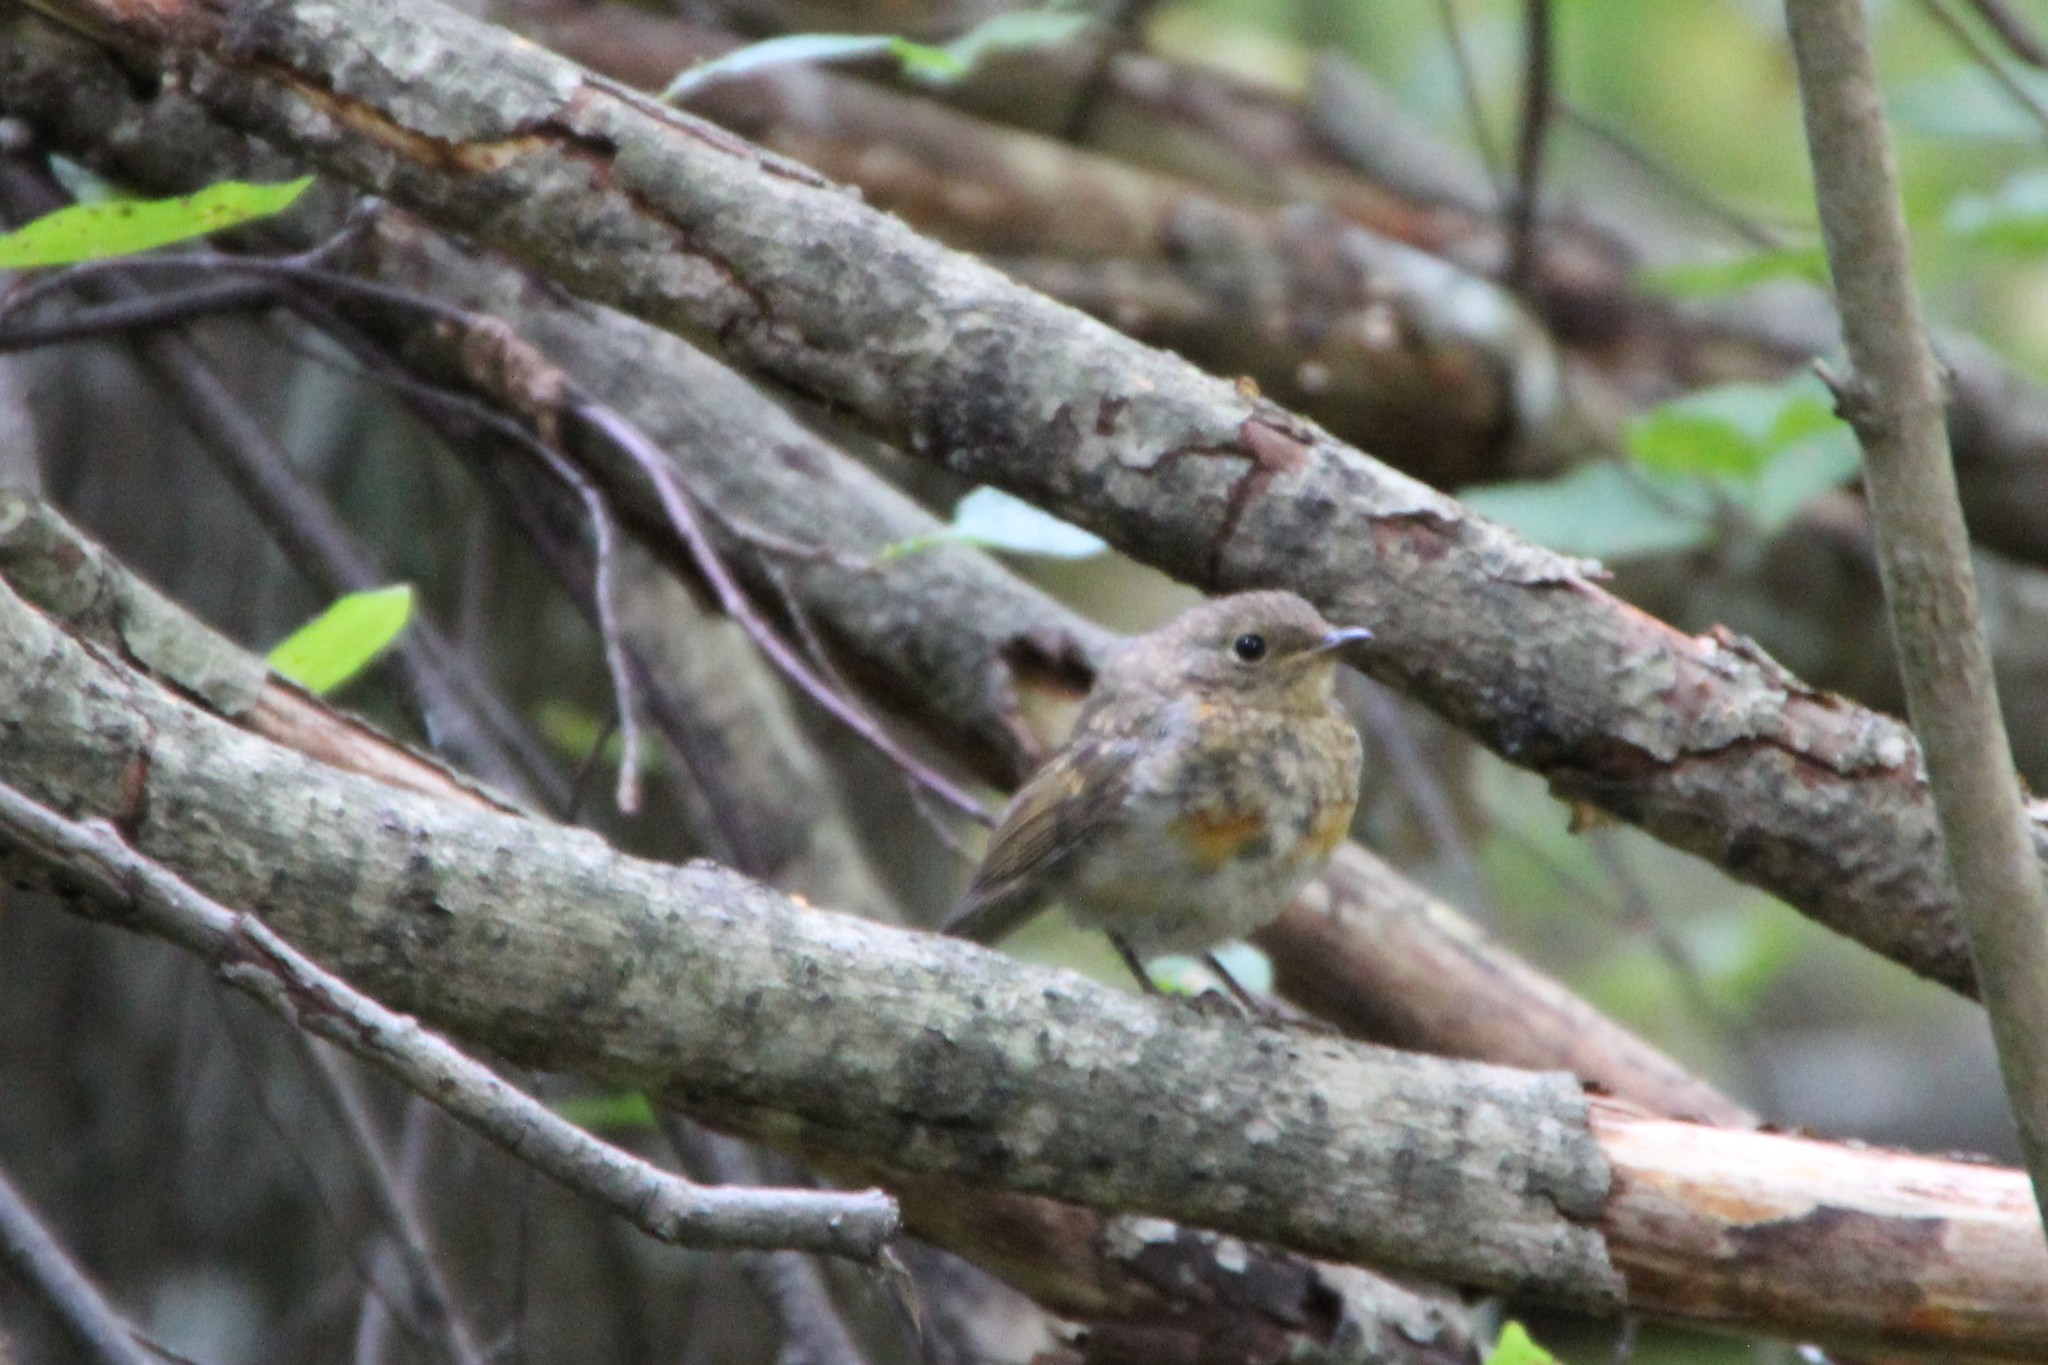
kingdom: Animalia
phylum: Chordata
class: Aves
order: Passeriformes
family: Muscicapidae
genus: Erithacus
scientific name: Erithacus rubecula
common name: European robin
